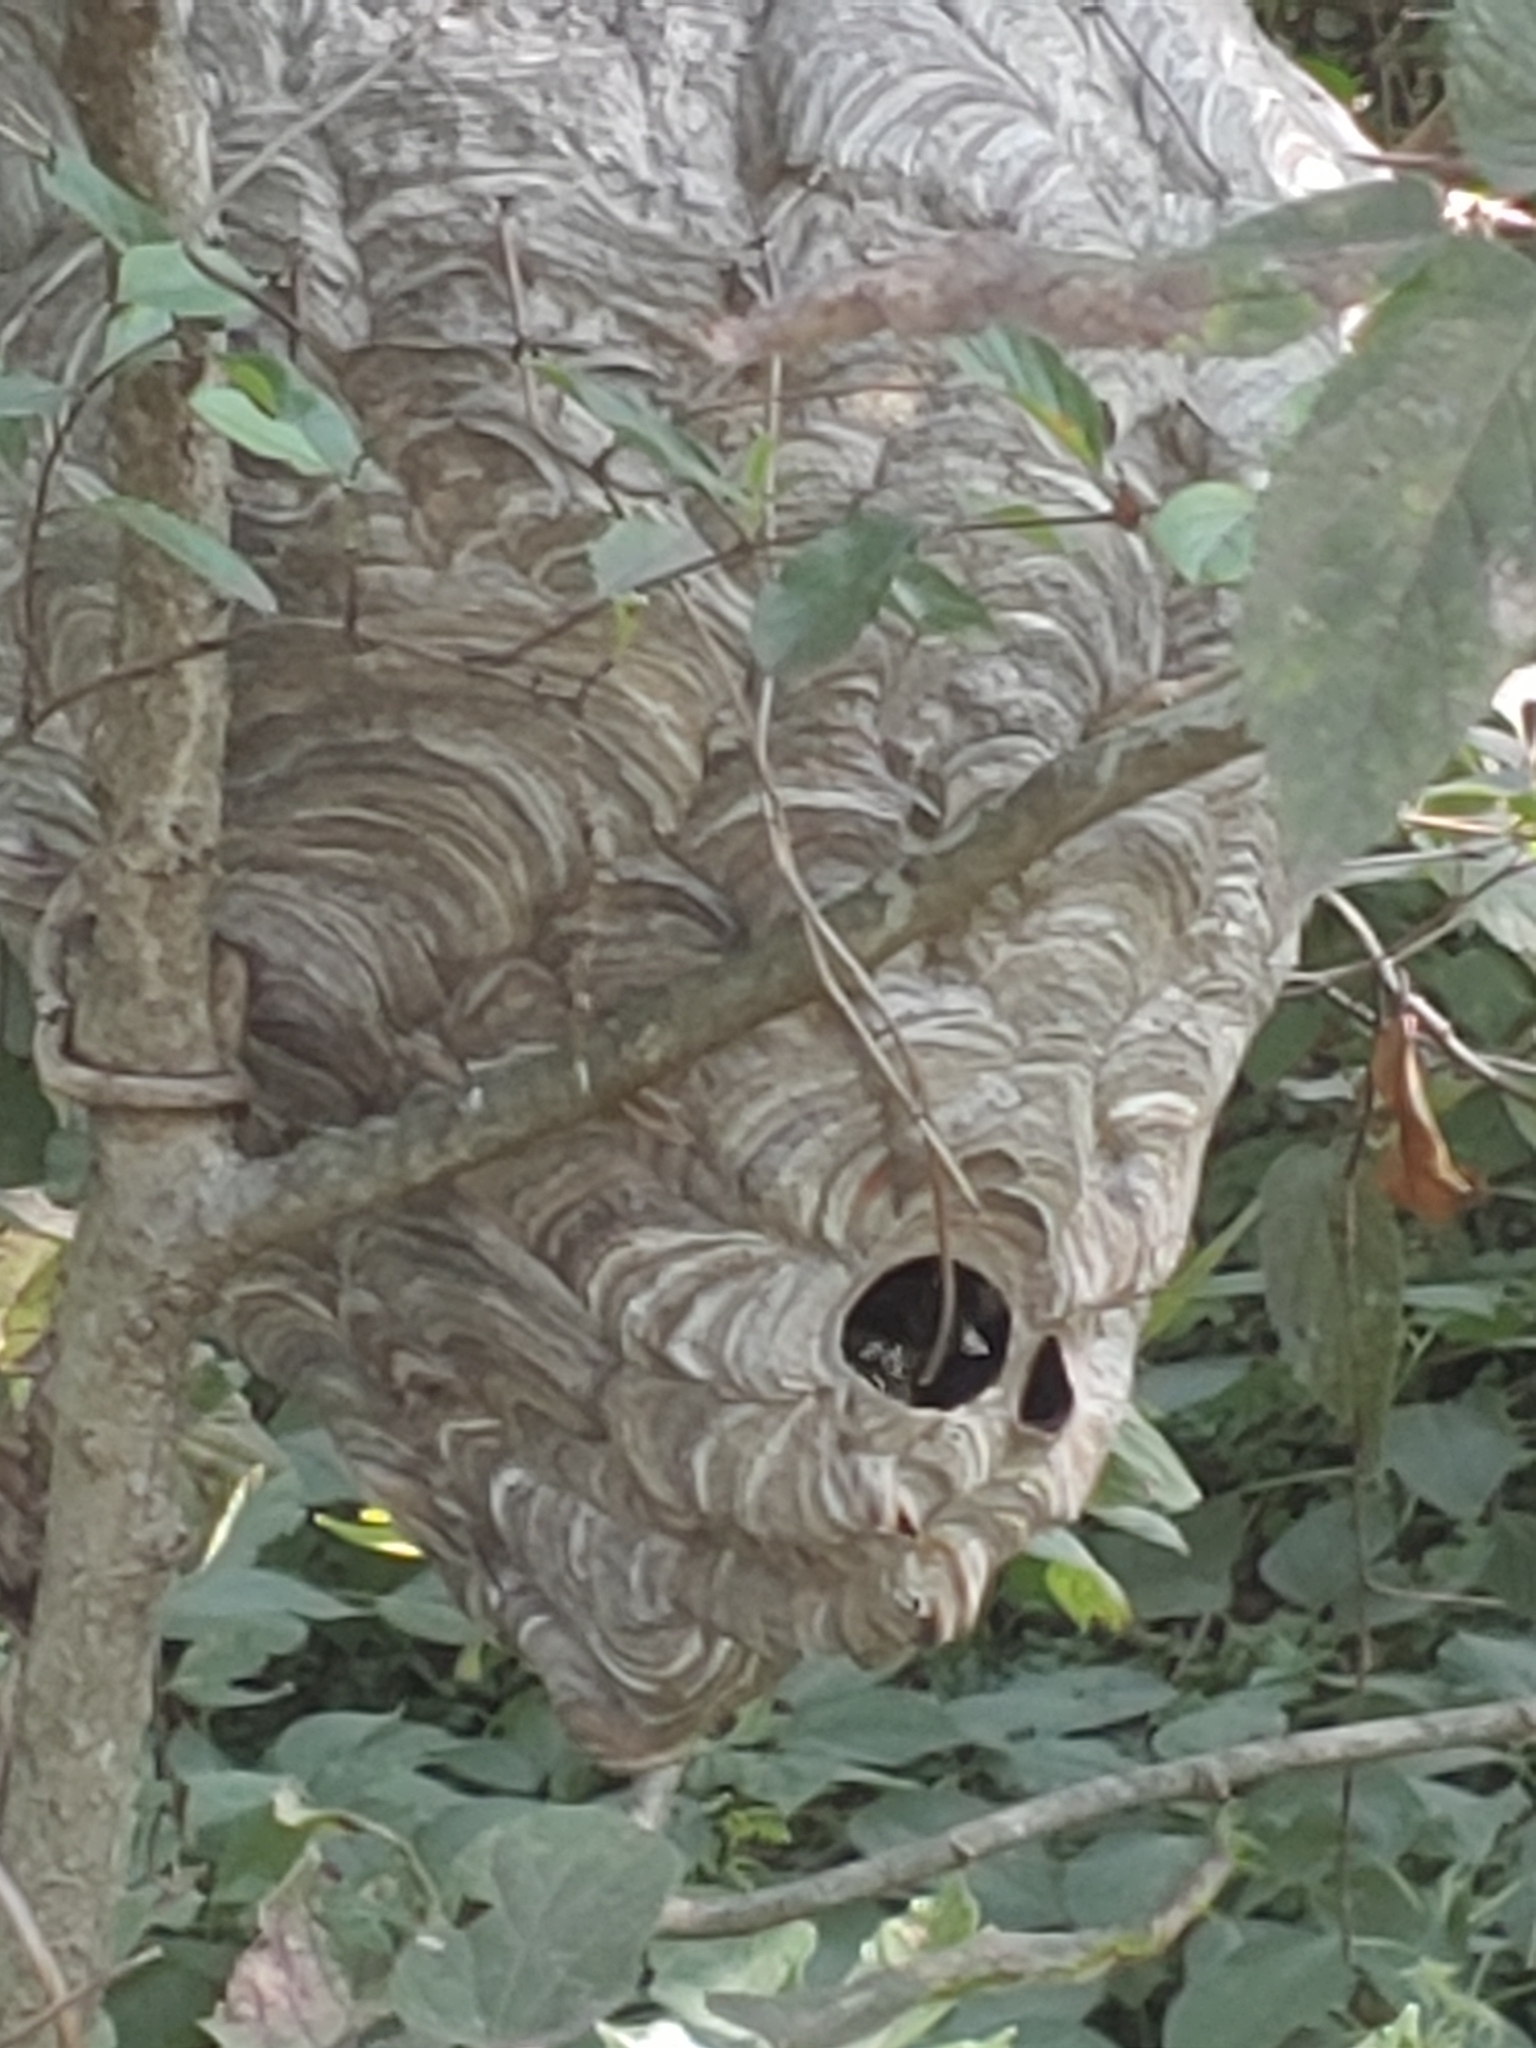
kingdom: Animalia
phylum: Arthropoda
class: Insecta
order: Hymenoptera
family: Vespidae
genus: Dolichovespula
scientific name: Dolichovespula maculata
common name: Bald-faced hornet
